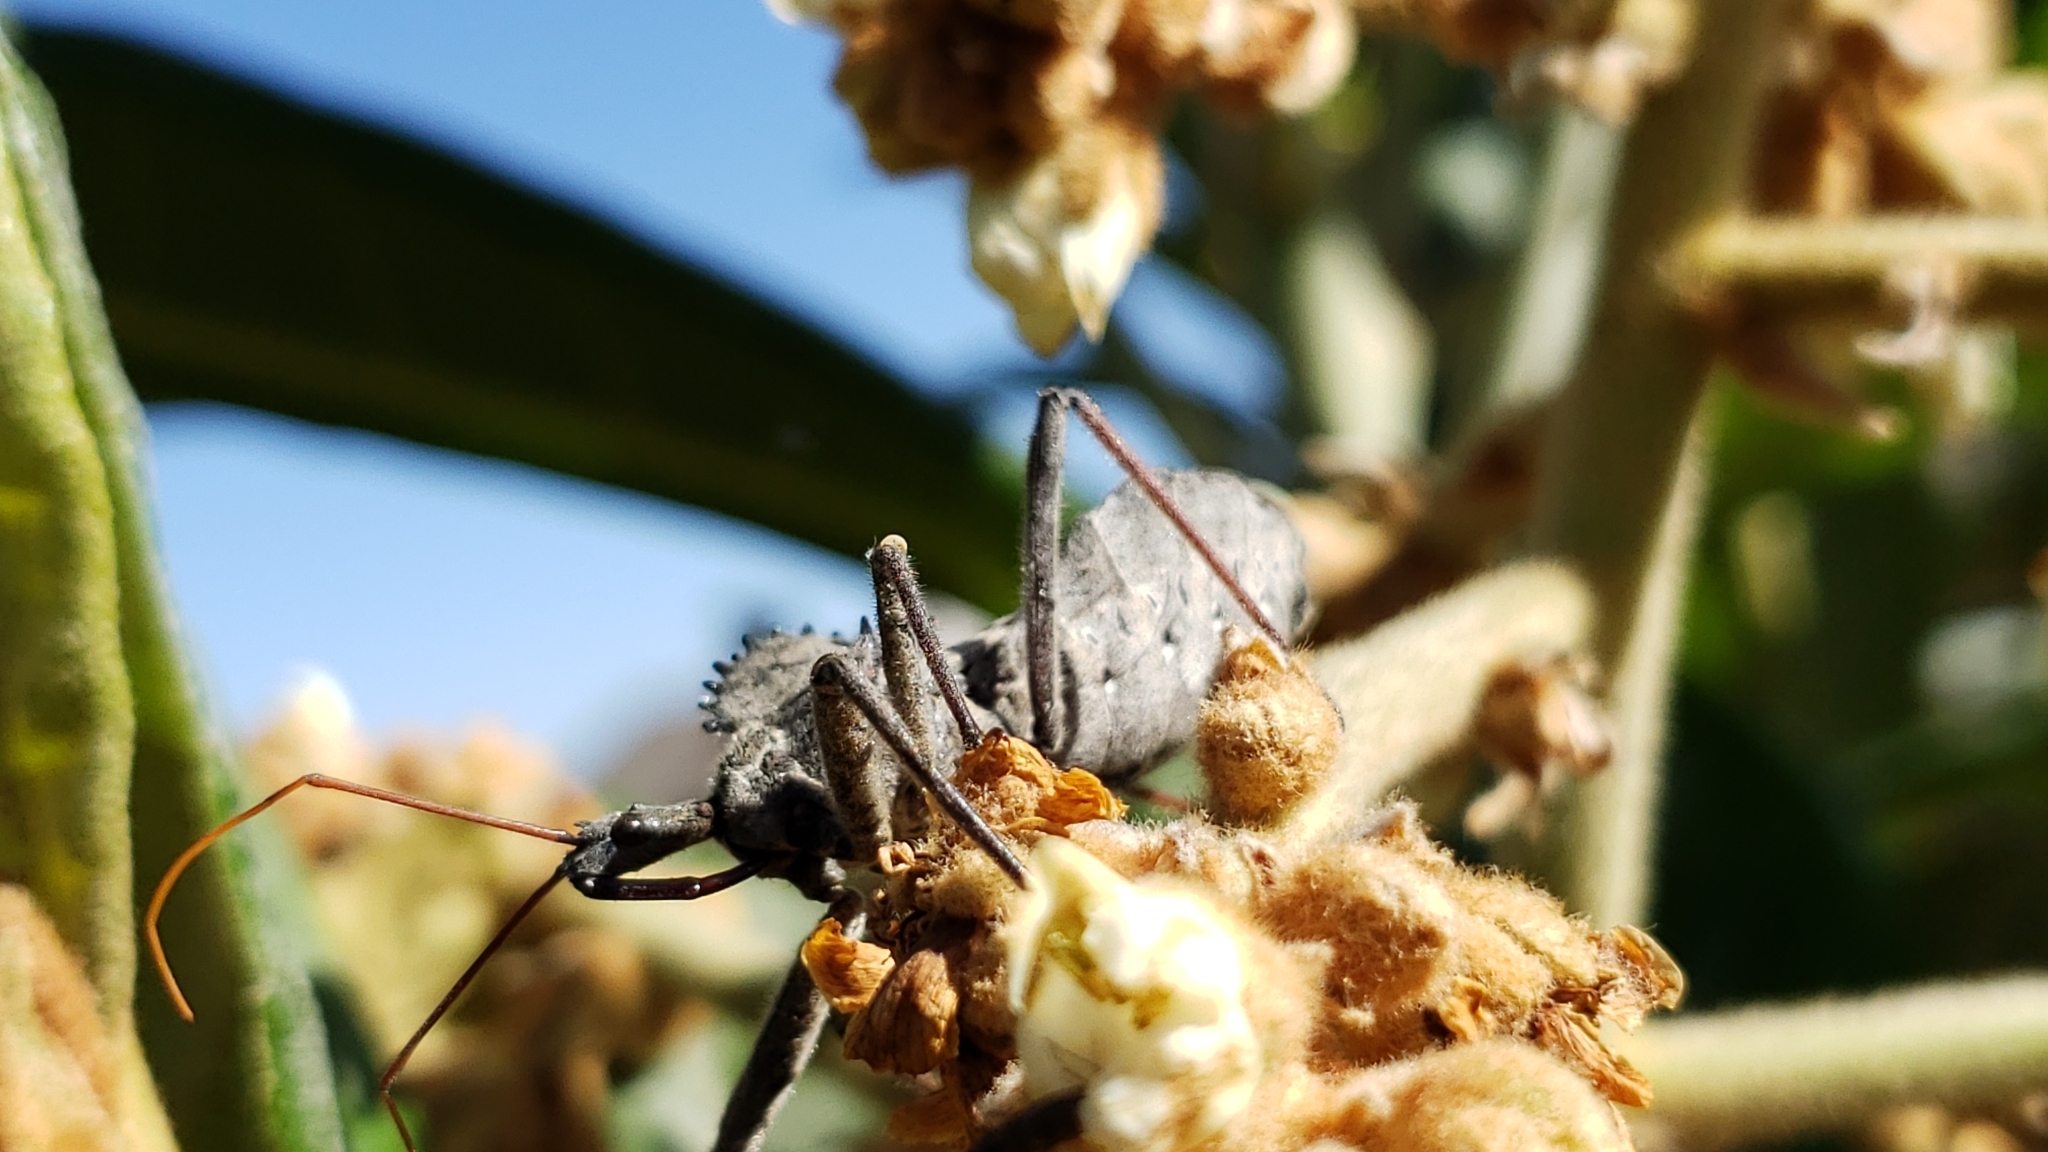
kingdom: Animalia
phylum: Arthropoda
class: Insecta
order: Hemiptera
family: Reduviidae
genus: Arilus
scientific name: Arilus cristatus
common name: North american wheel bug
